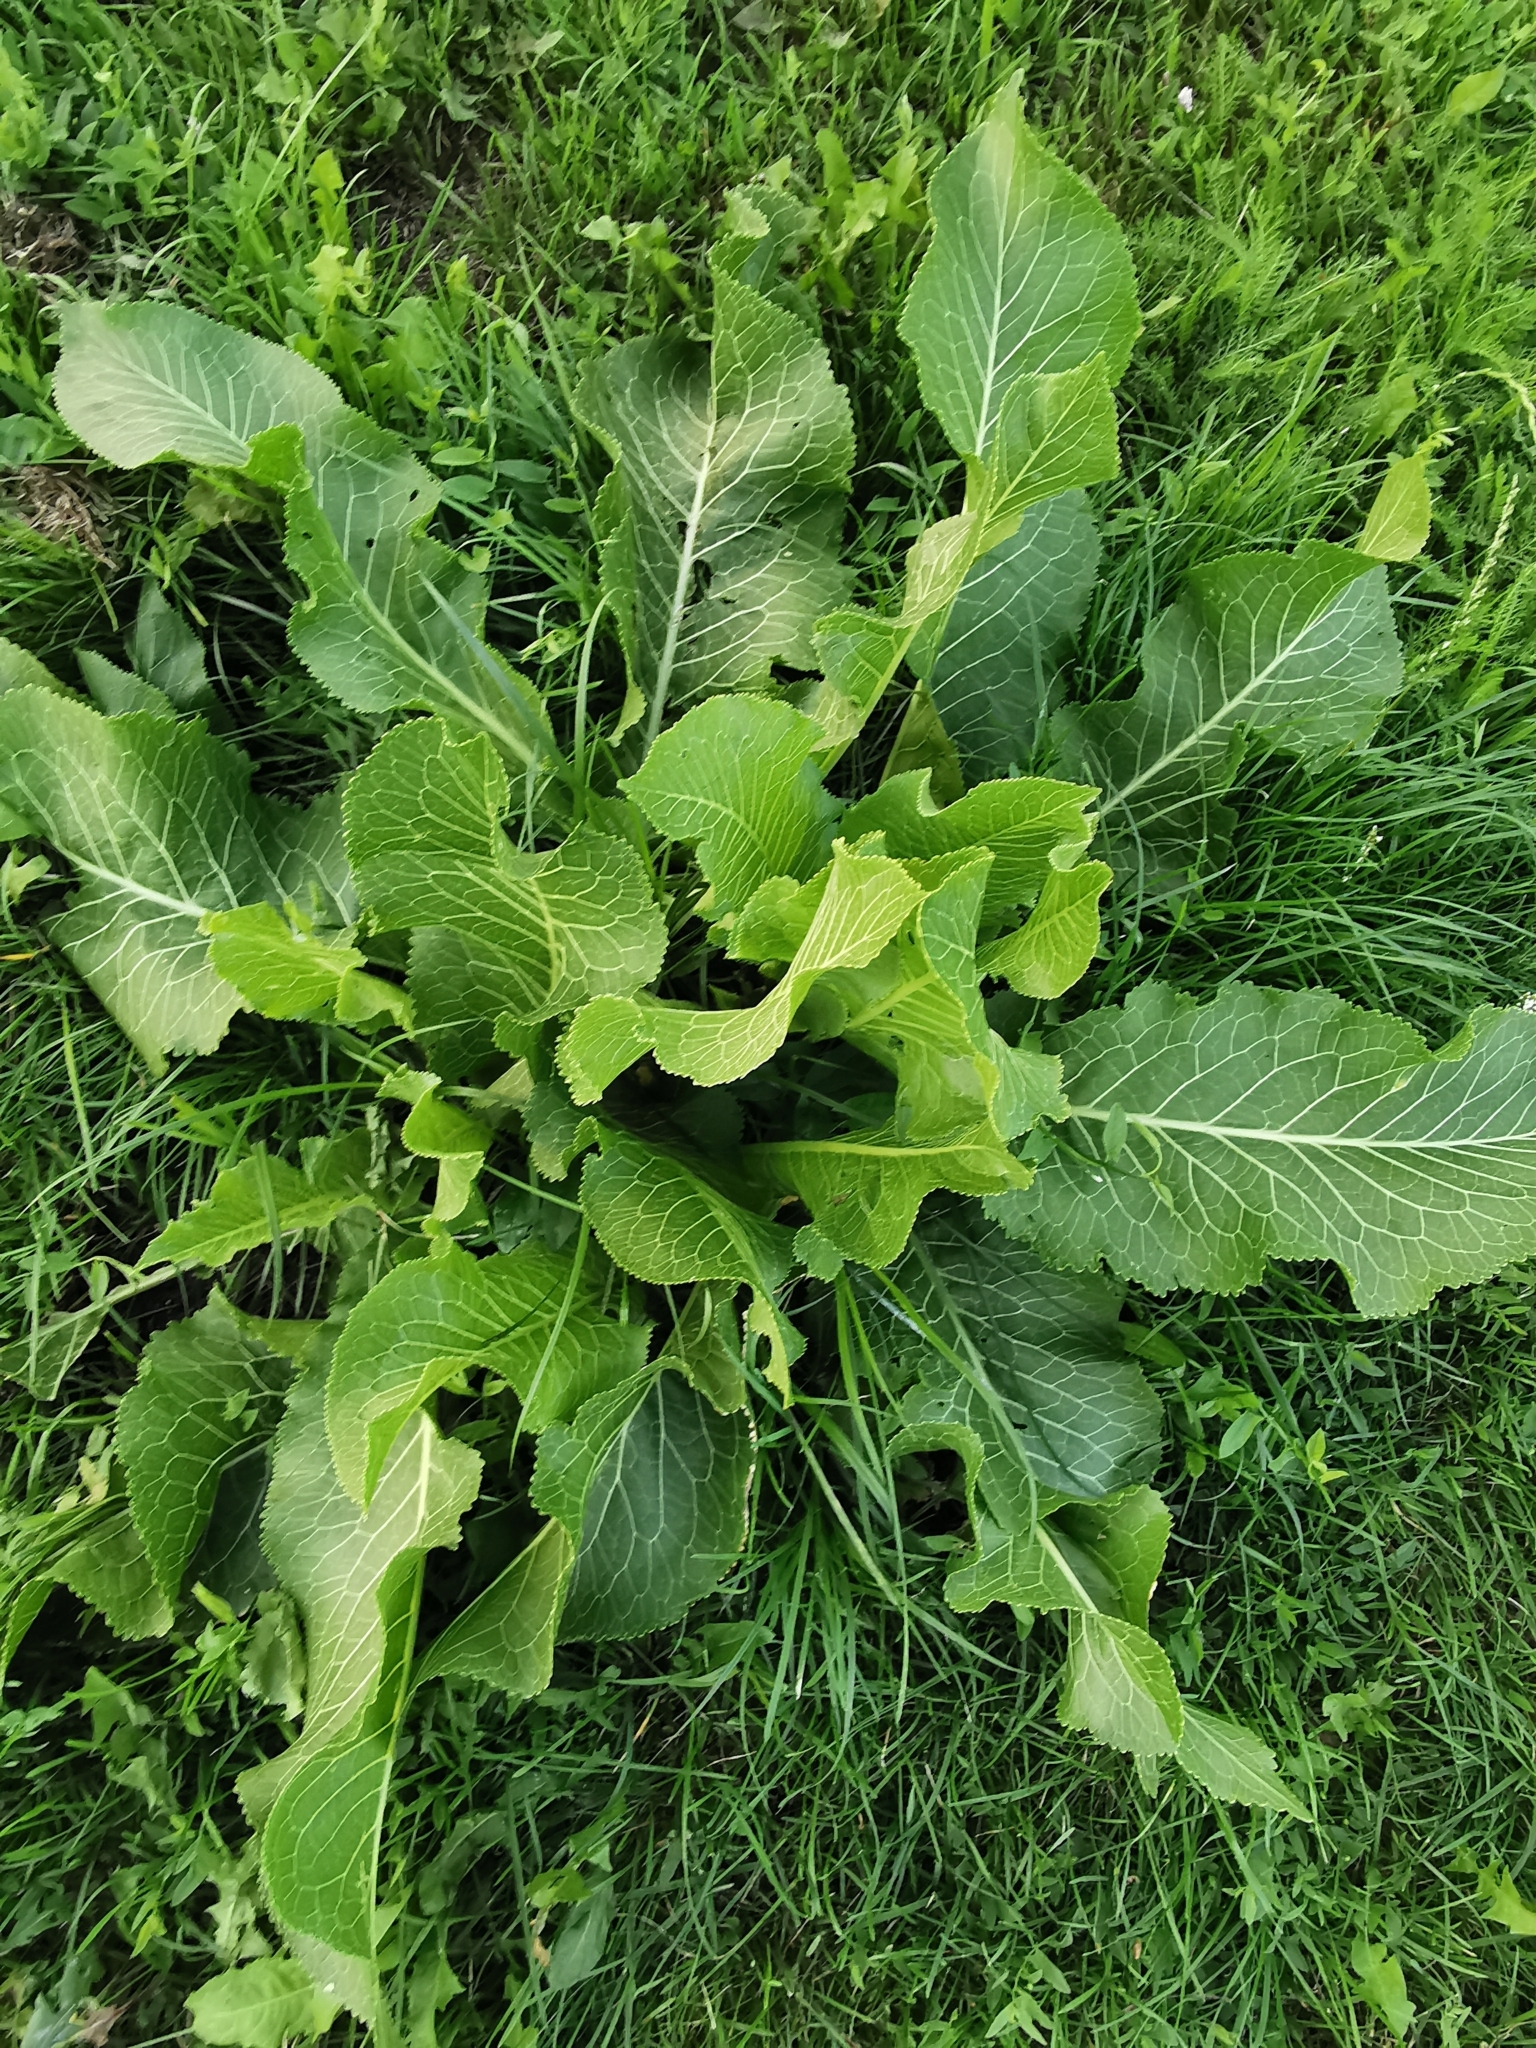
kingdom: Plantae
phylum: Tracheophyta
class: Magnoliopsida
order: Brassicales
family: Brassicaceae
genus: Armoracia
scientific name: Armoracia rusticana
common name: Horseradish
